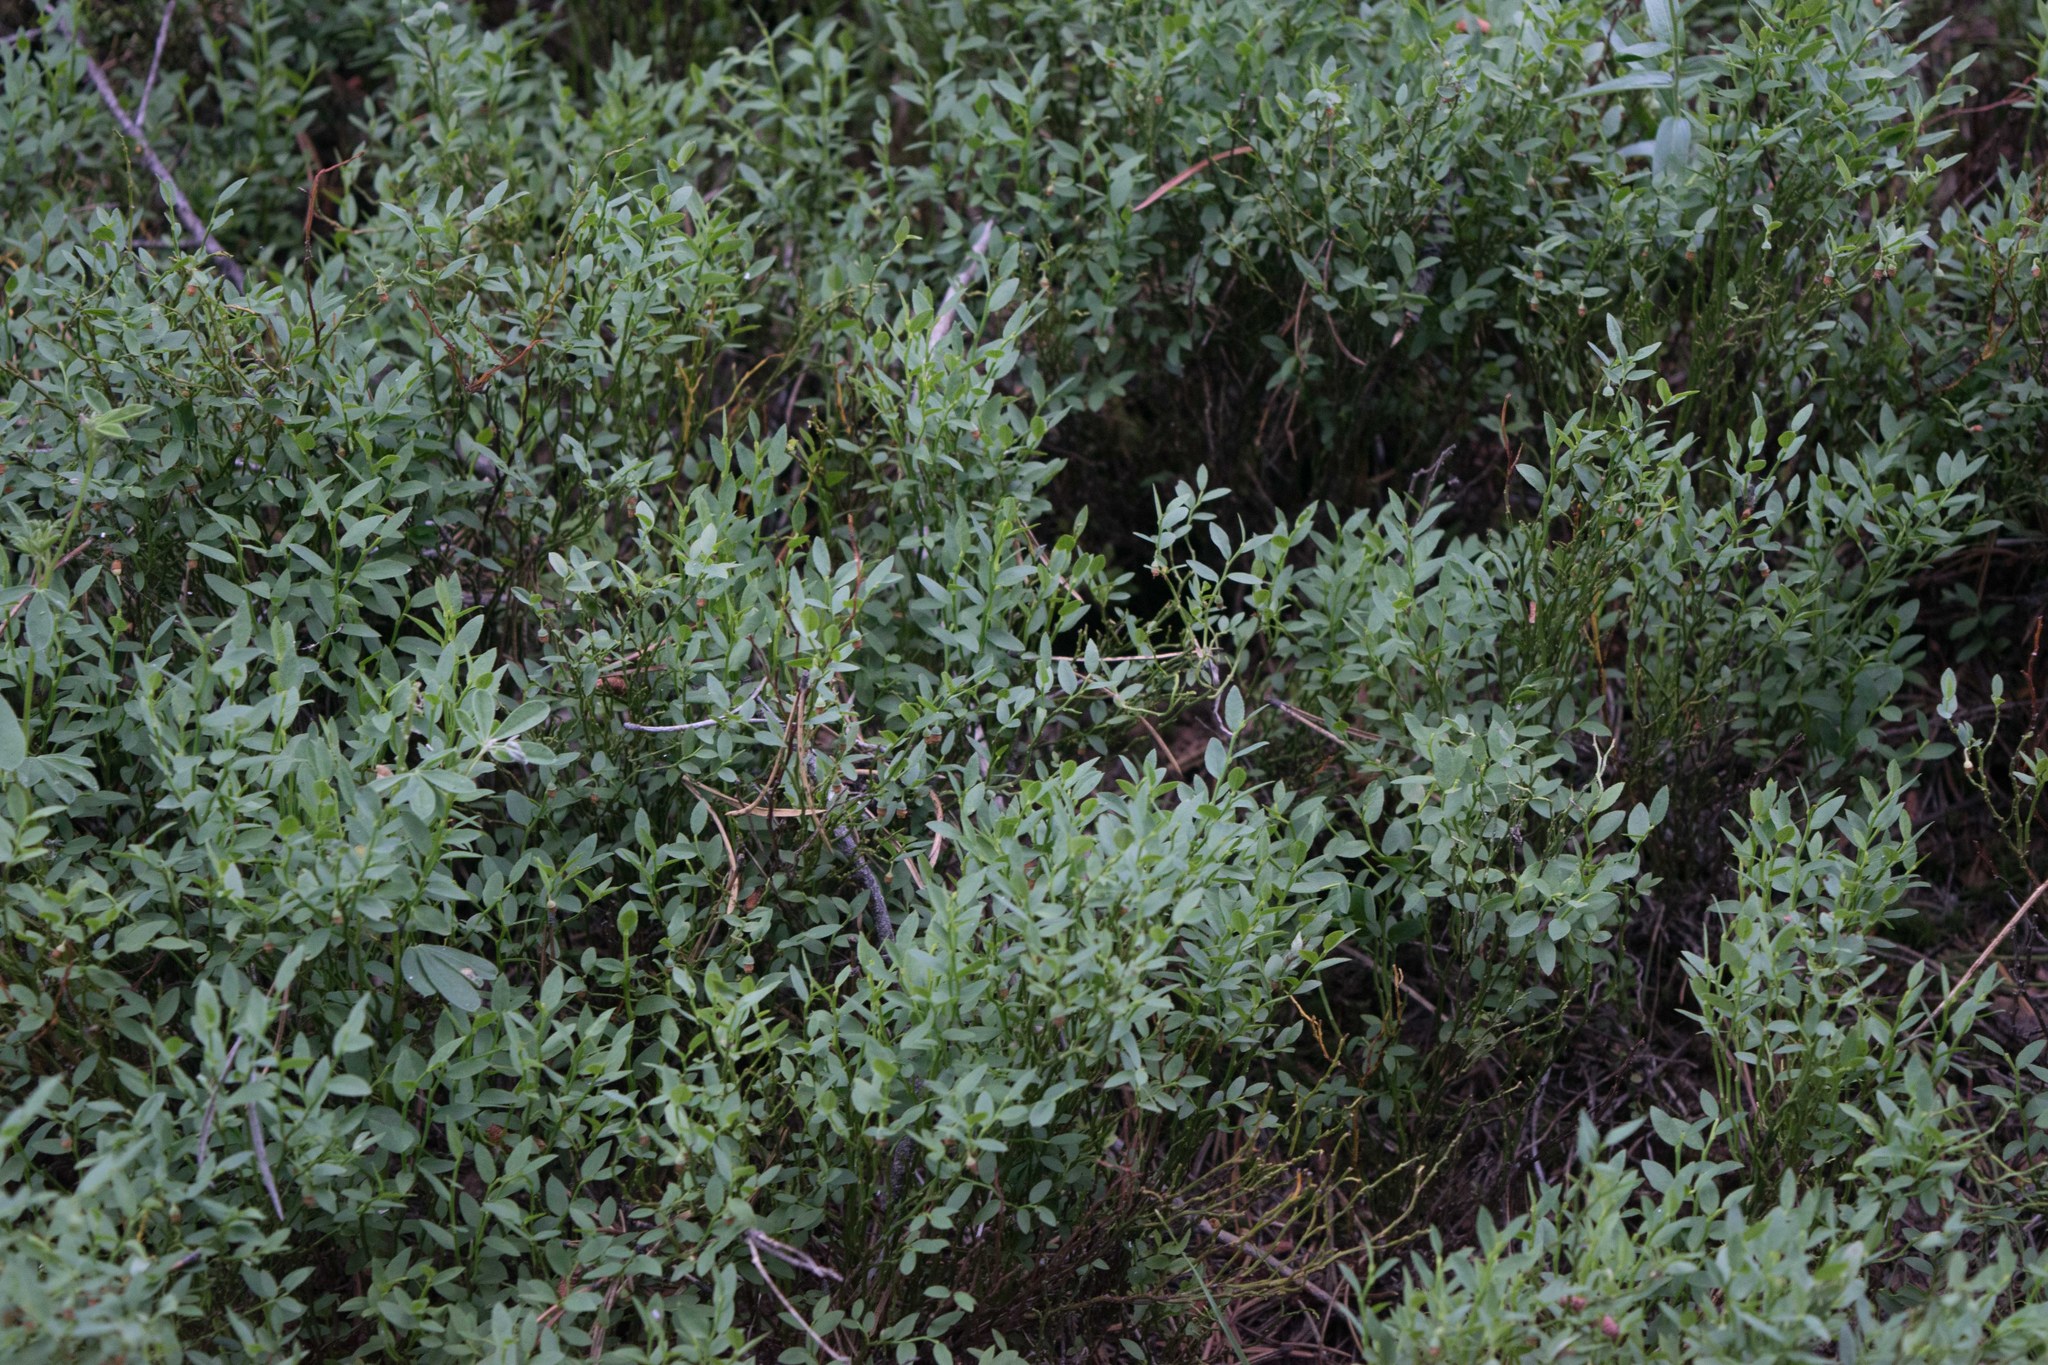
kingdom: Plantae
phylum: Tracheophyta
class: Magnoliopsida
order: Ericales
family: Ericaceae
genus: Vaccinium
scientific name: Vaccinium scoparium
